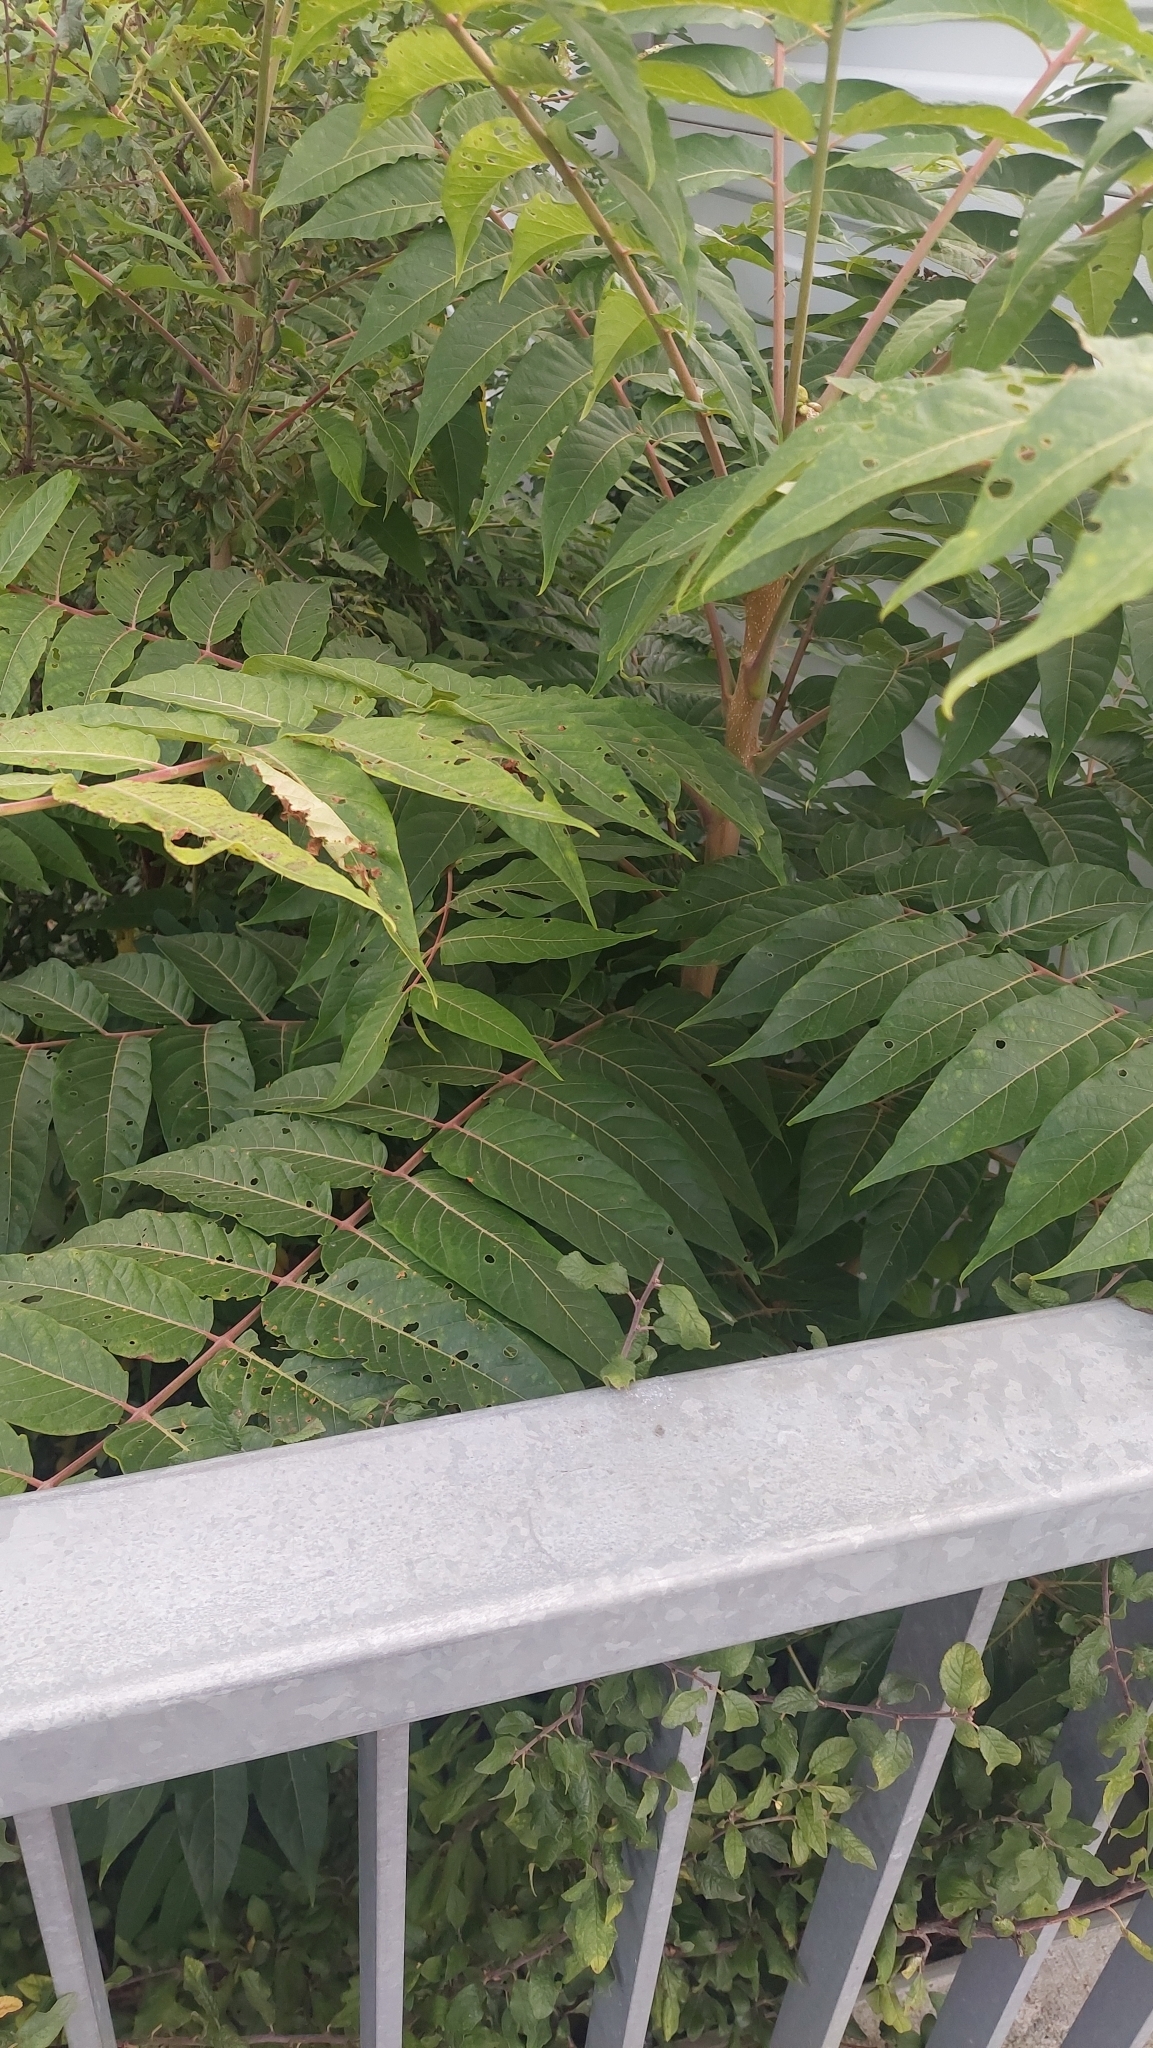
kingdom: Plantae
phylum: Tracheophyta
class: Magnoliopsida
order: Sapindales
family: Simaroubaceae
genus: Ailanthus
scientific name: Ailanthus altissima
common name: Tree-of-heaven
